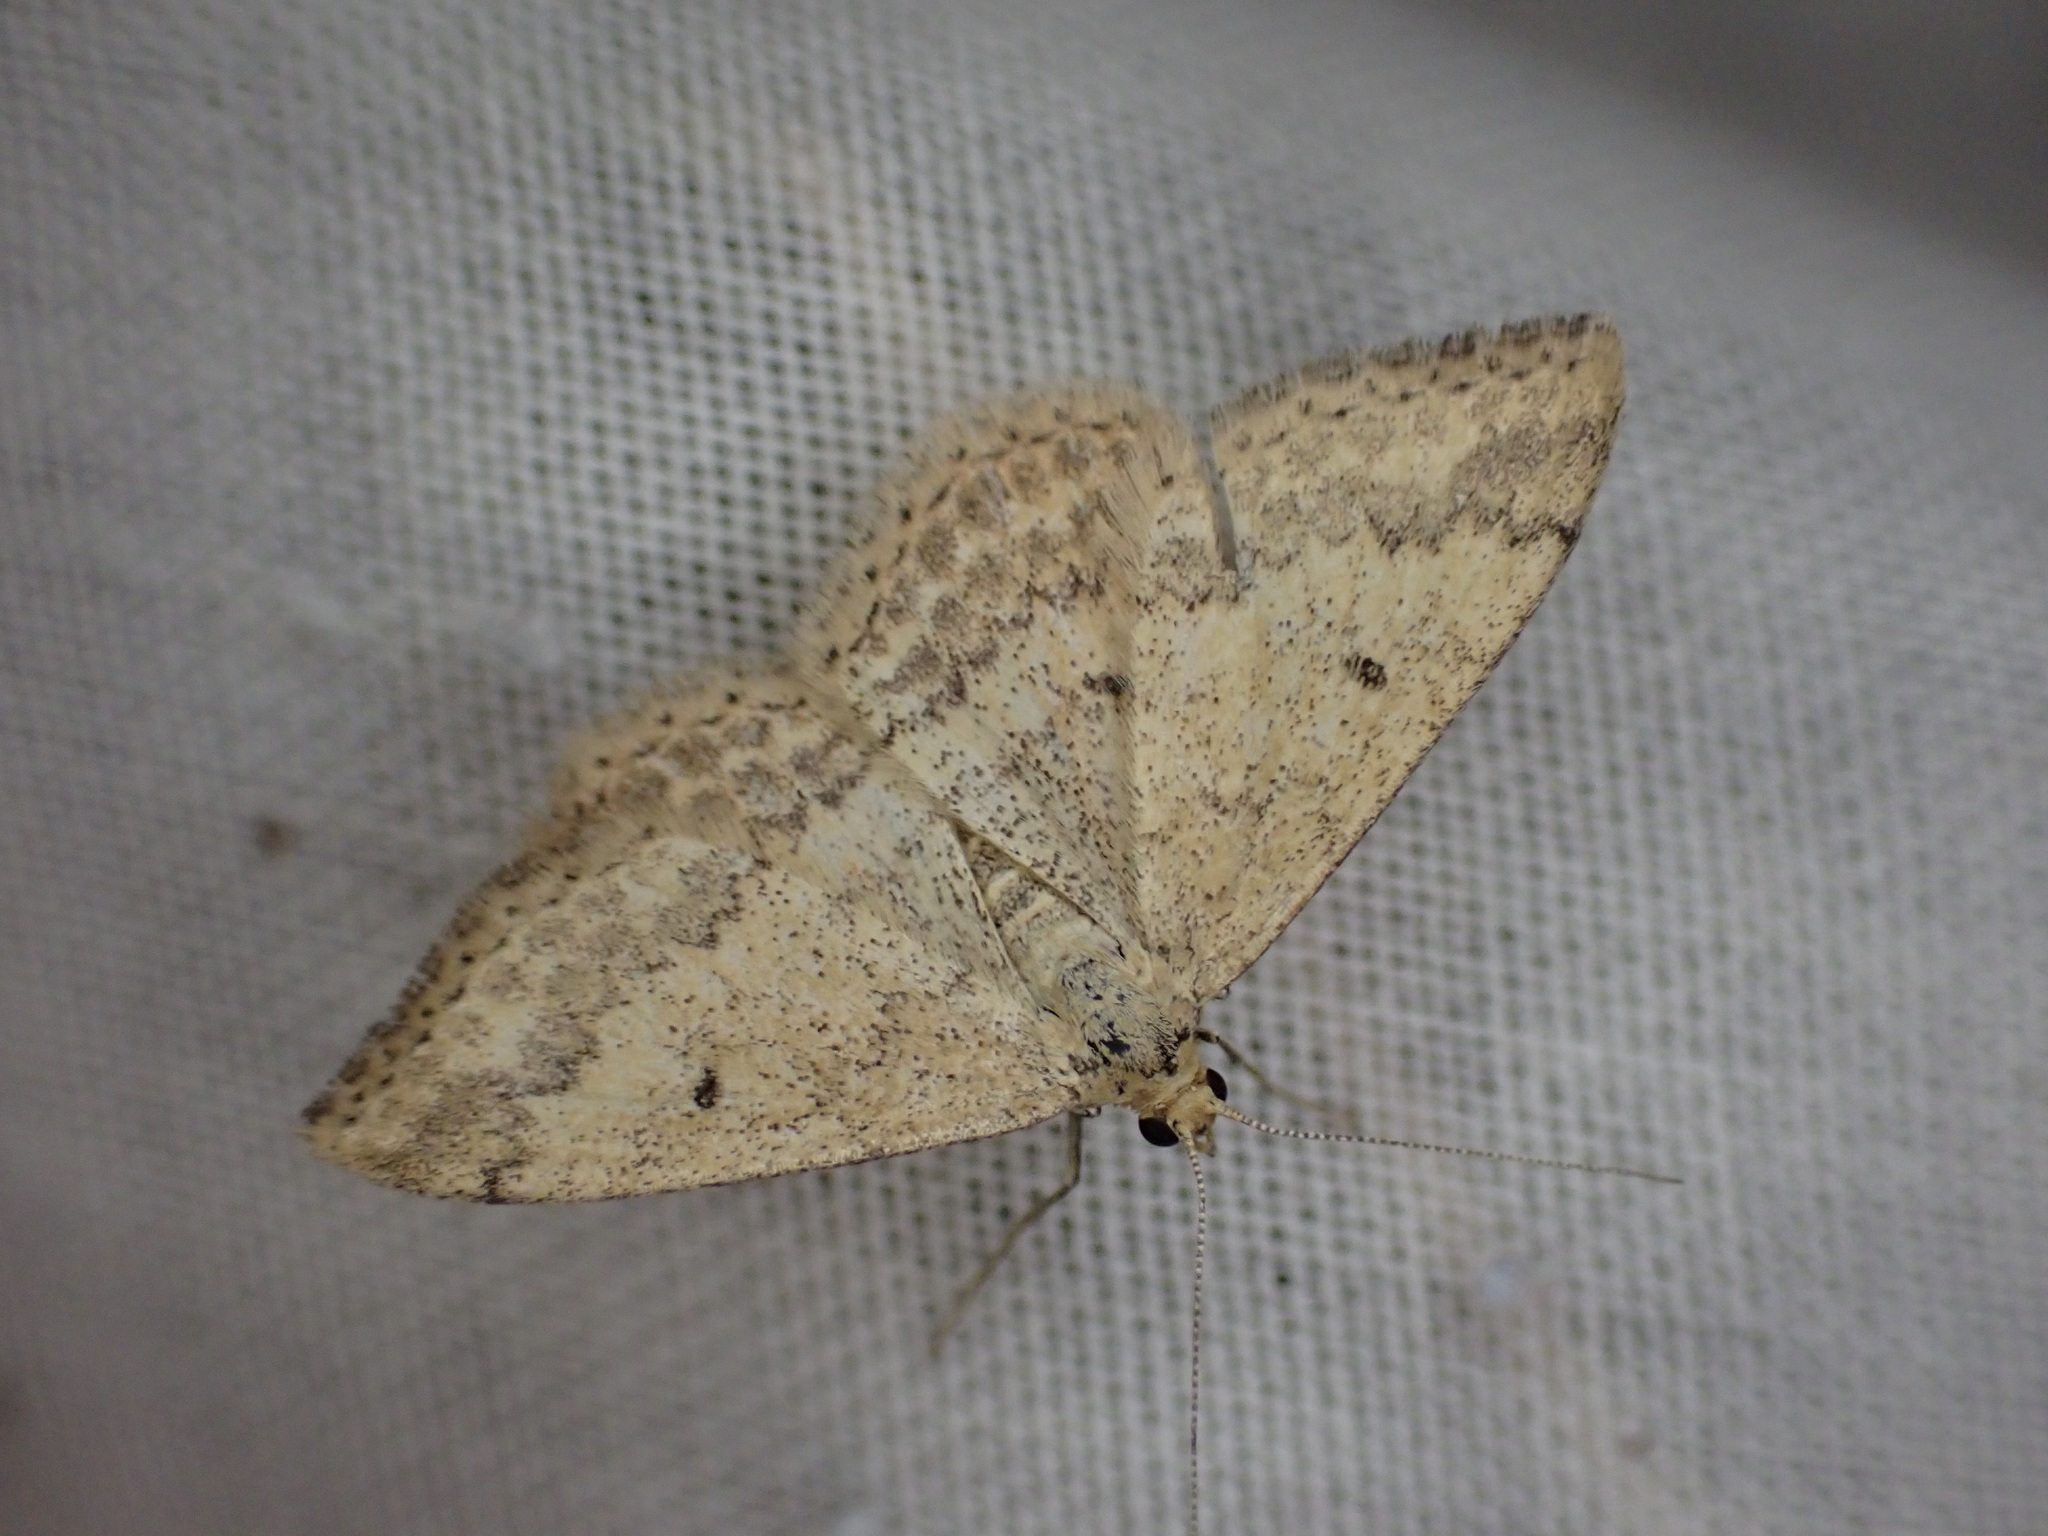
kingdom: Animalia
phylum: Arthropoda
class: Insecta
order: Lepidoptera
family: Geometridae
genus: Scopula
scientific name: Scopula rubraria
